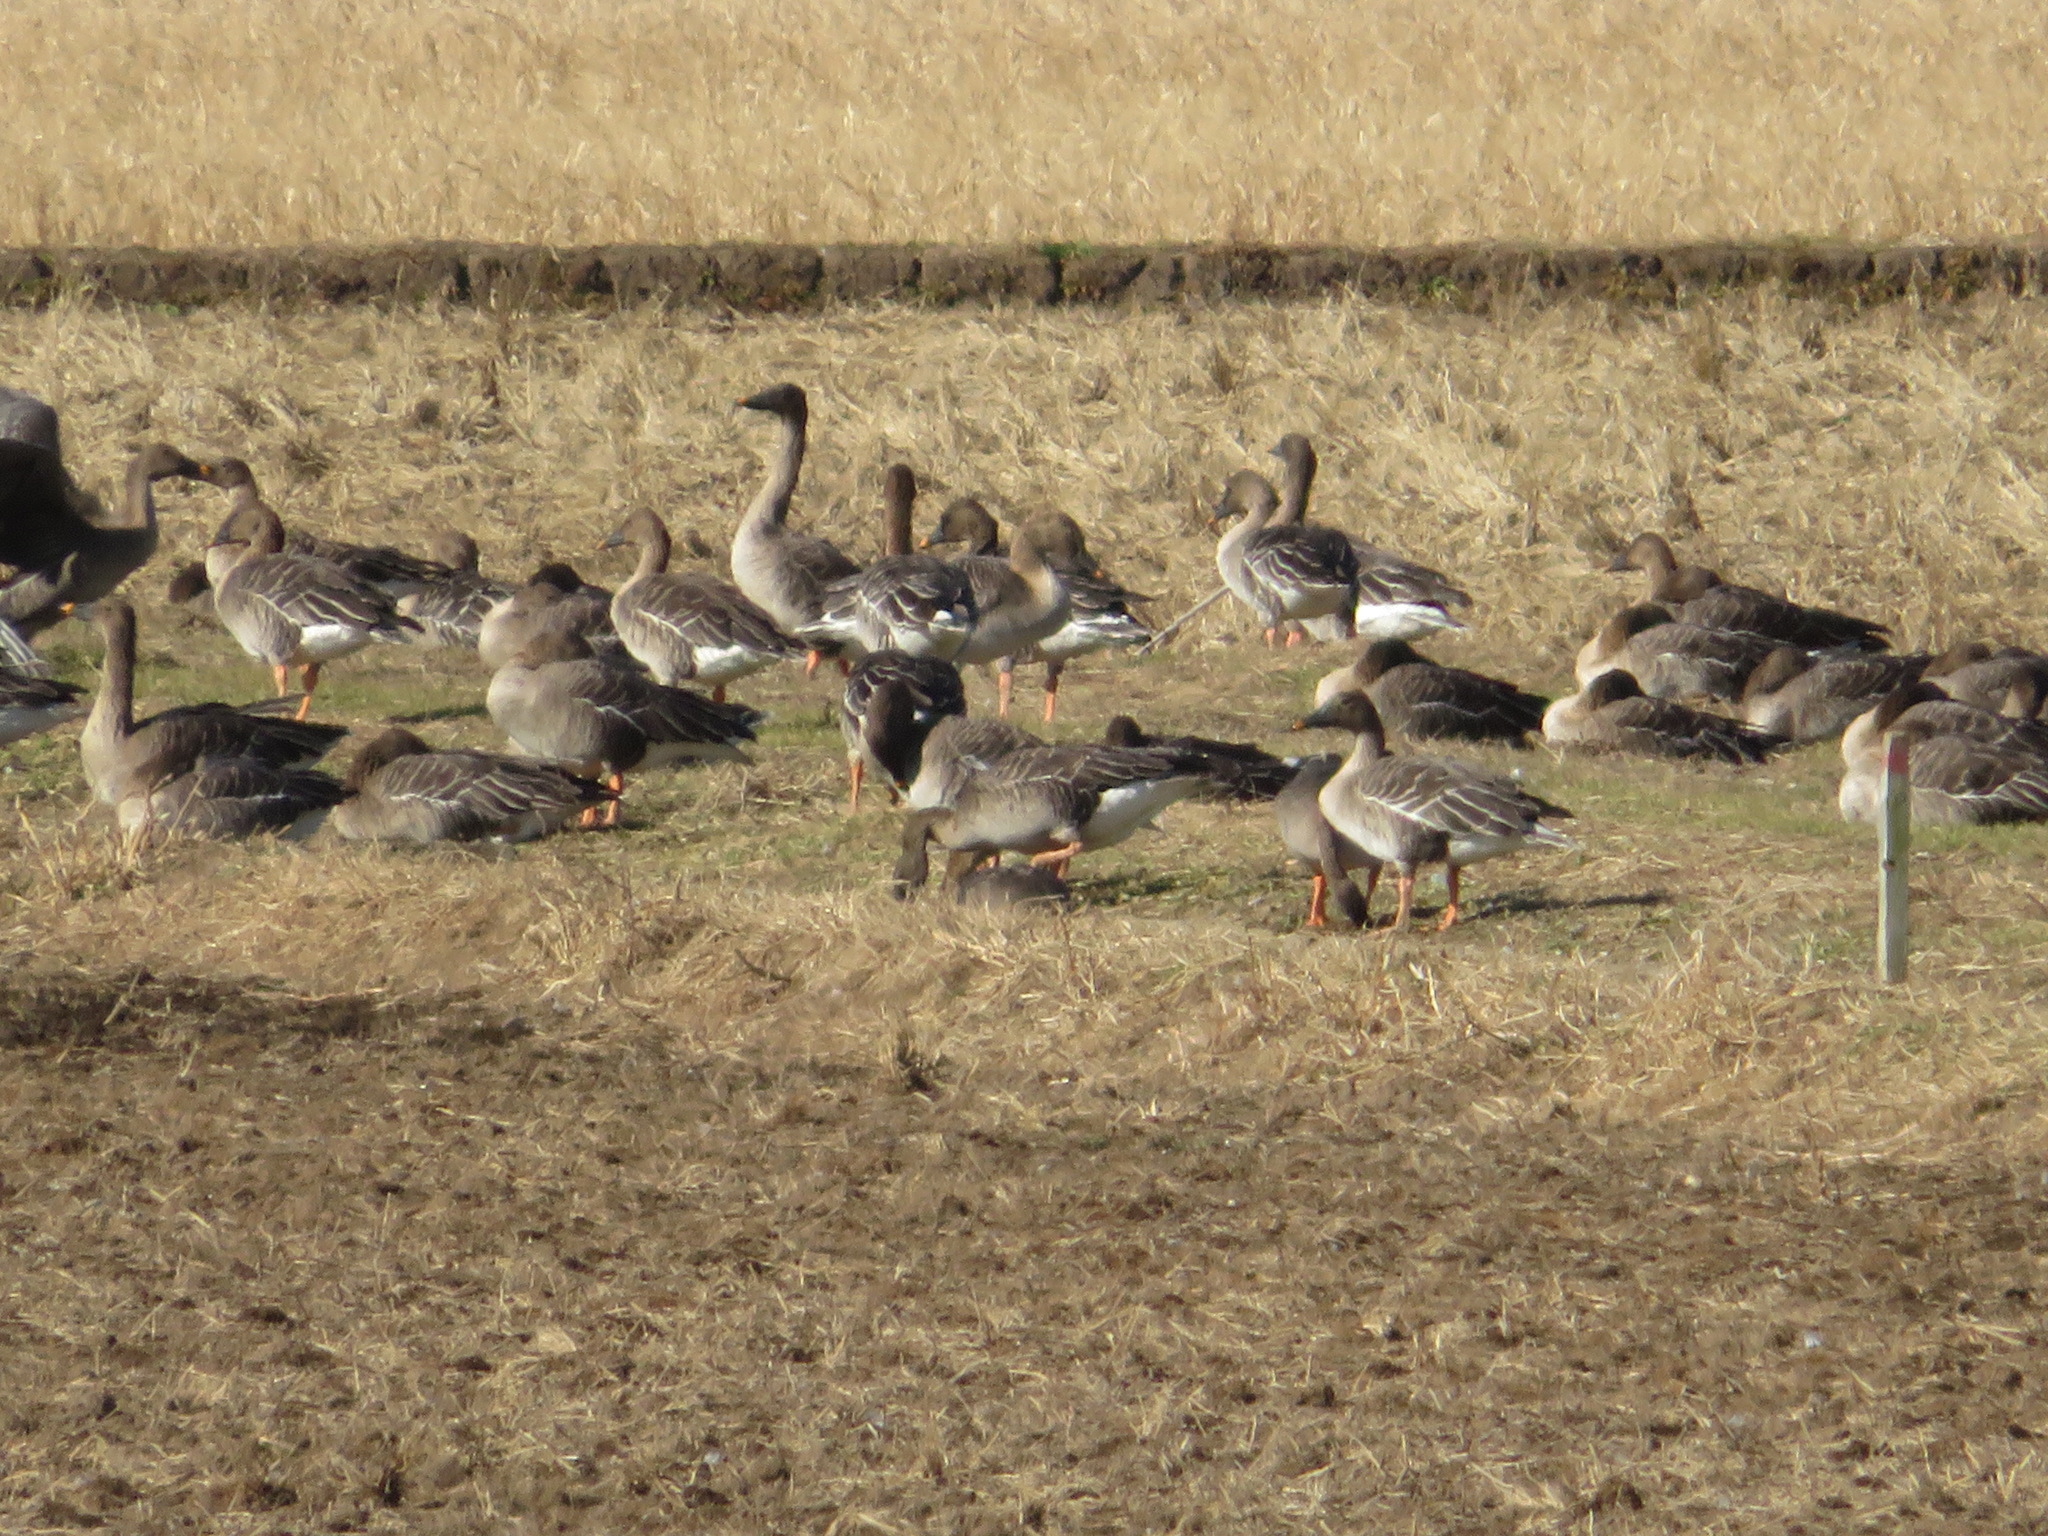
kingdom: Animalia
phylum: Chordata
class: Aves
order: Anseriformes
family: Anatidae
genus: Anser
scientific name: Anser fabalis
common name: Bean goose
